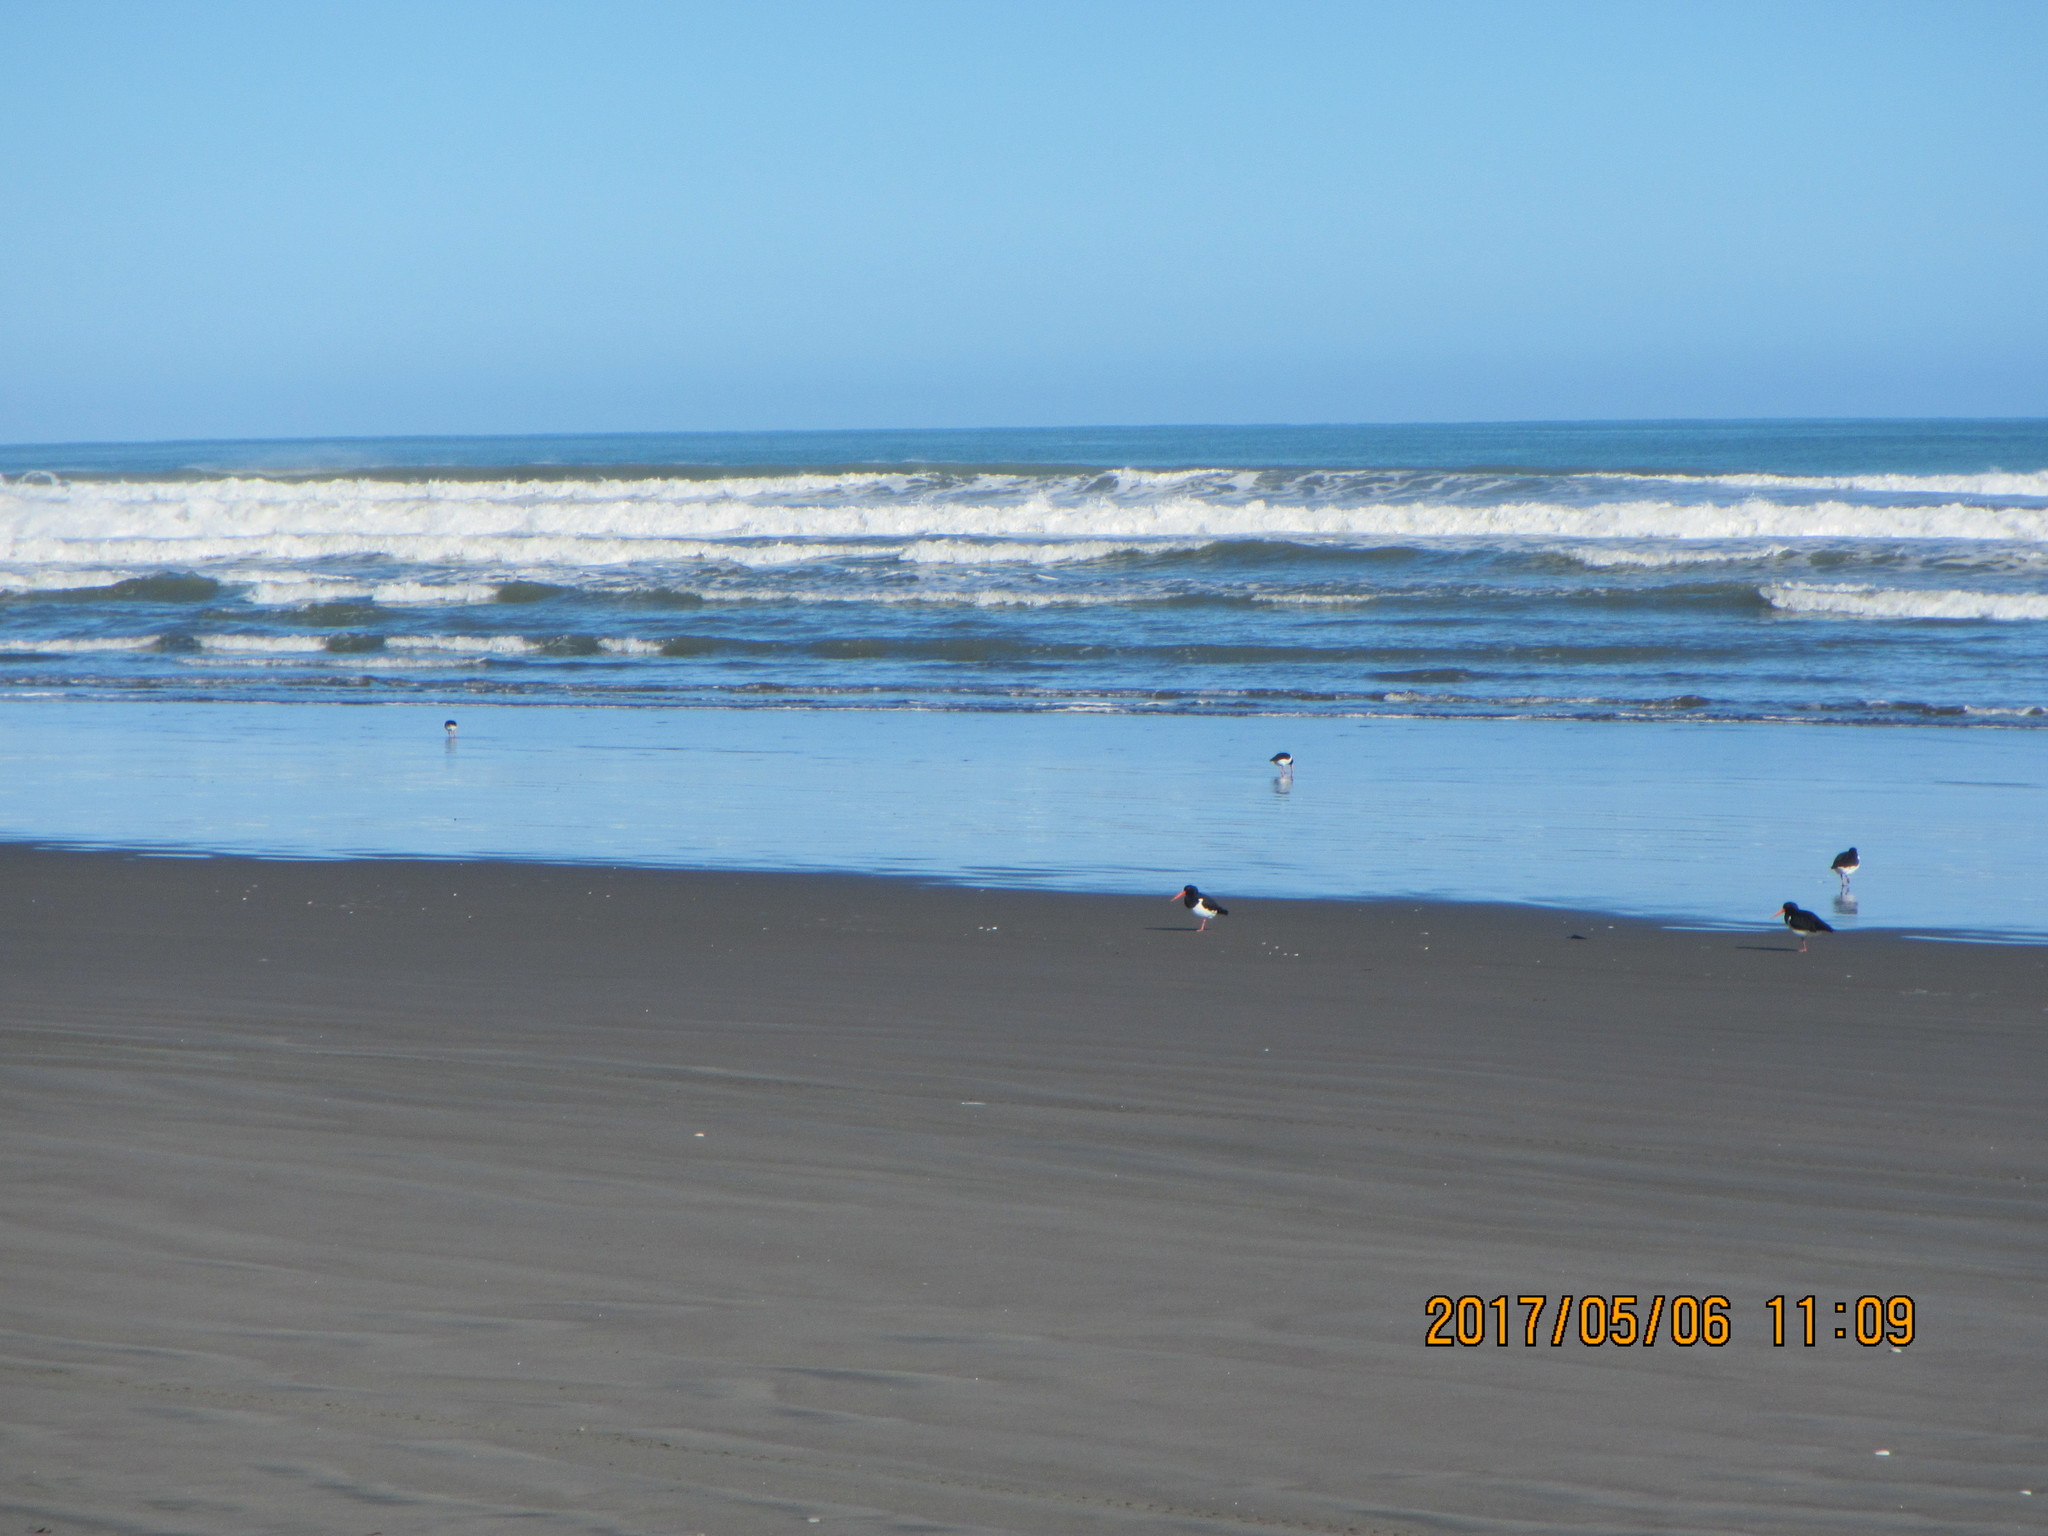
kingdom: Animalia
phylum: Chordata
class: Aves
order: Charadriiformes
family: Haematopodidae
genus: Haematopus
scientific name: Haematopus finschi
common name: South island oystercatcher
